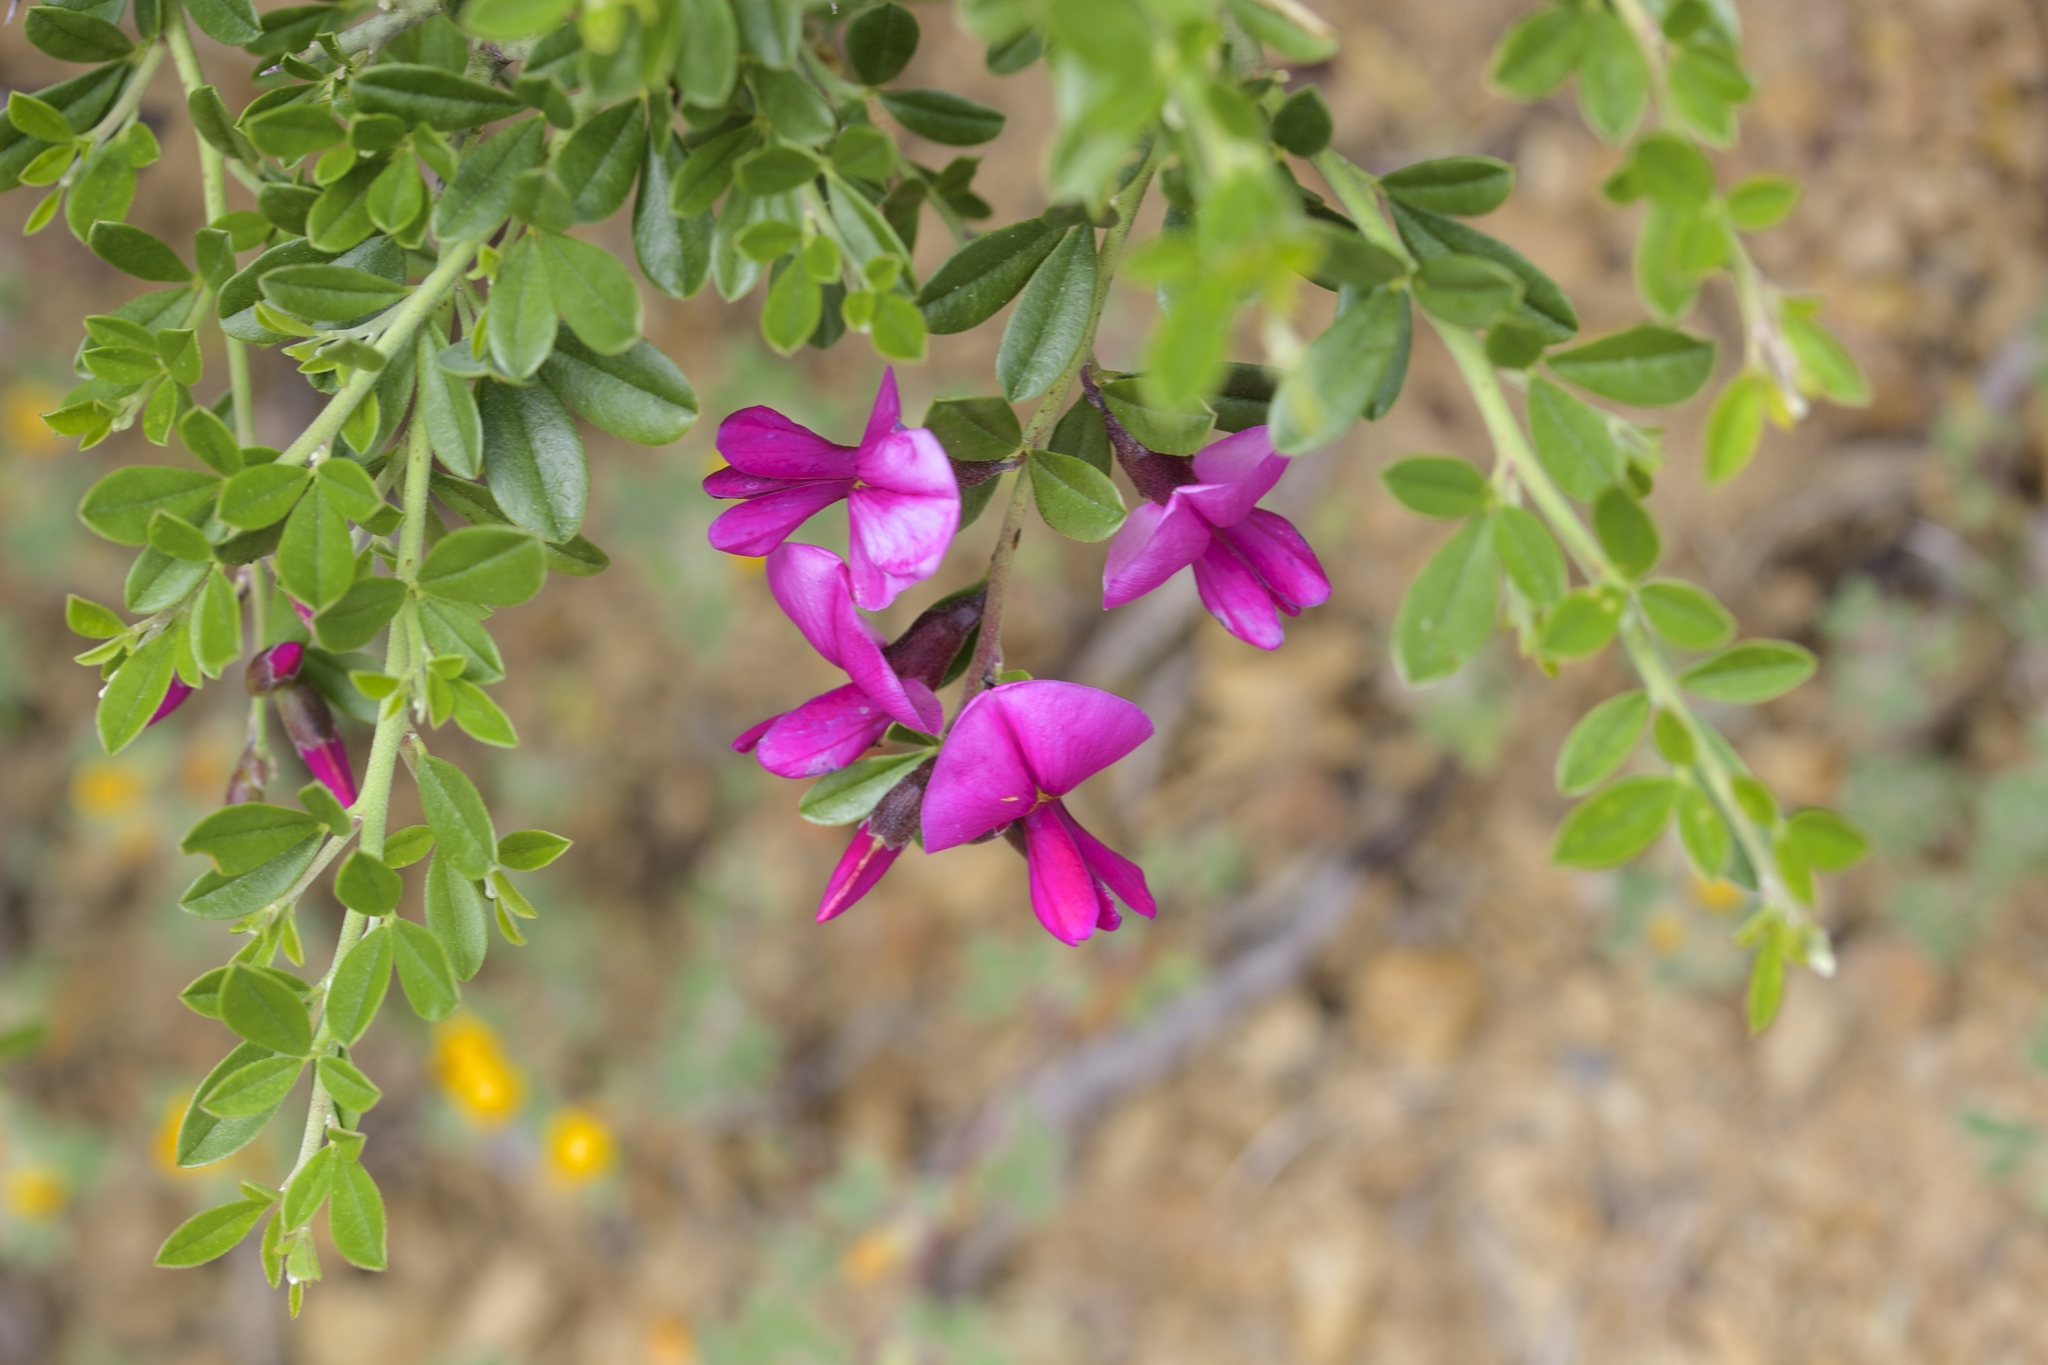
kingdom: Plantae
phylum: Tracheophyta
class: Magnoliopsida
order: Fabales
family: Fabaceae
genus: Pickeringia
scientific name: Pickeringia montana
